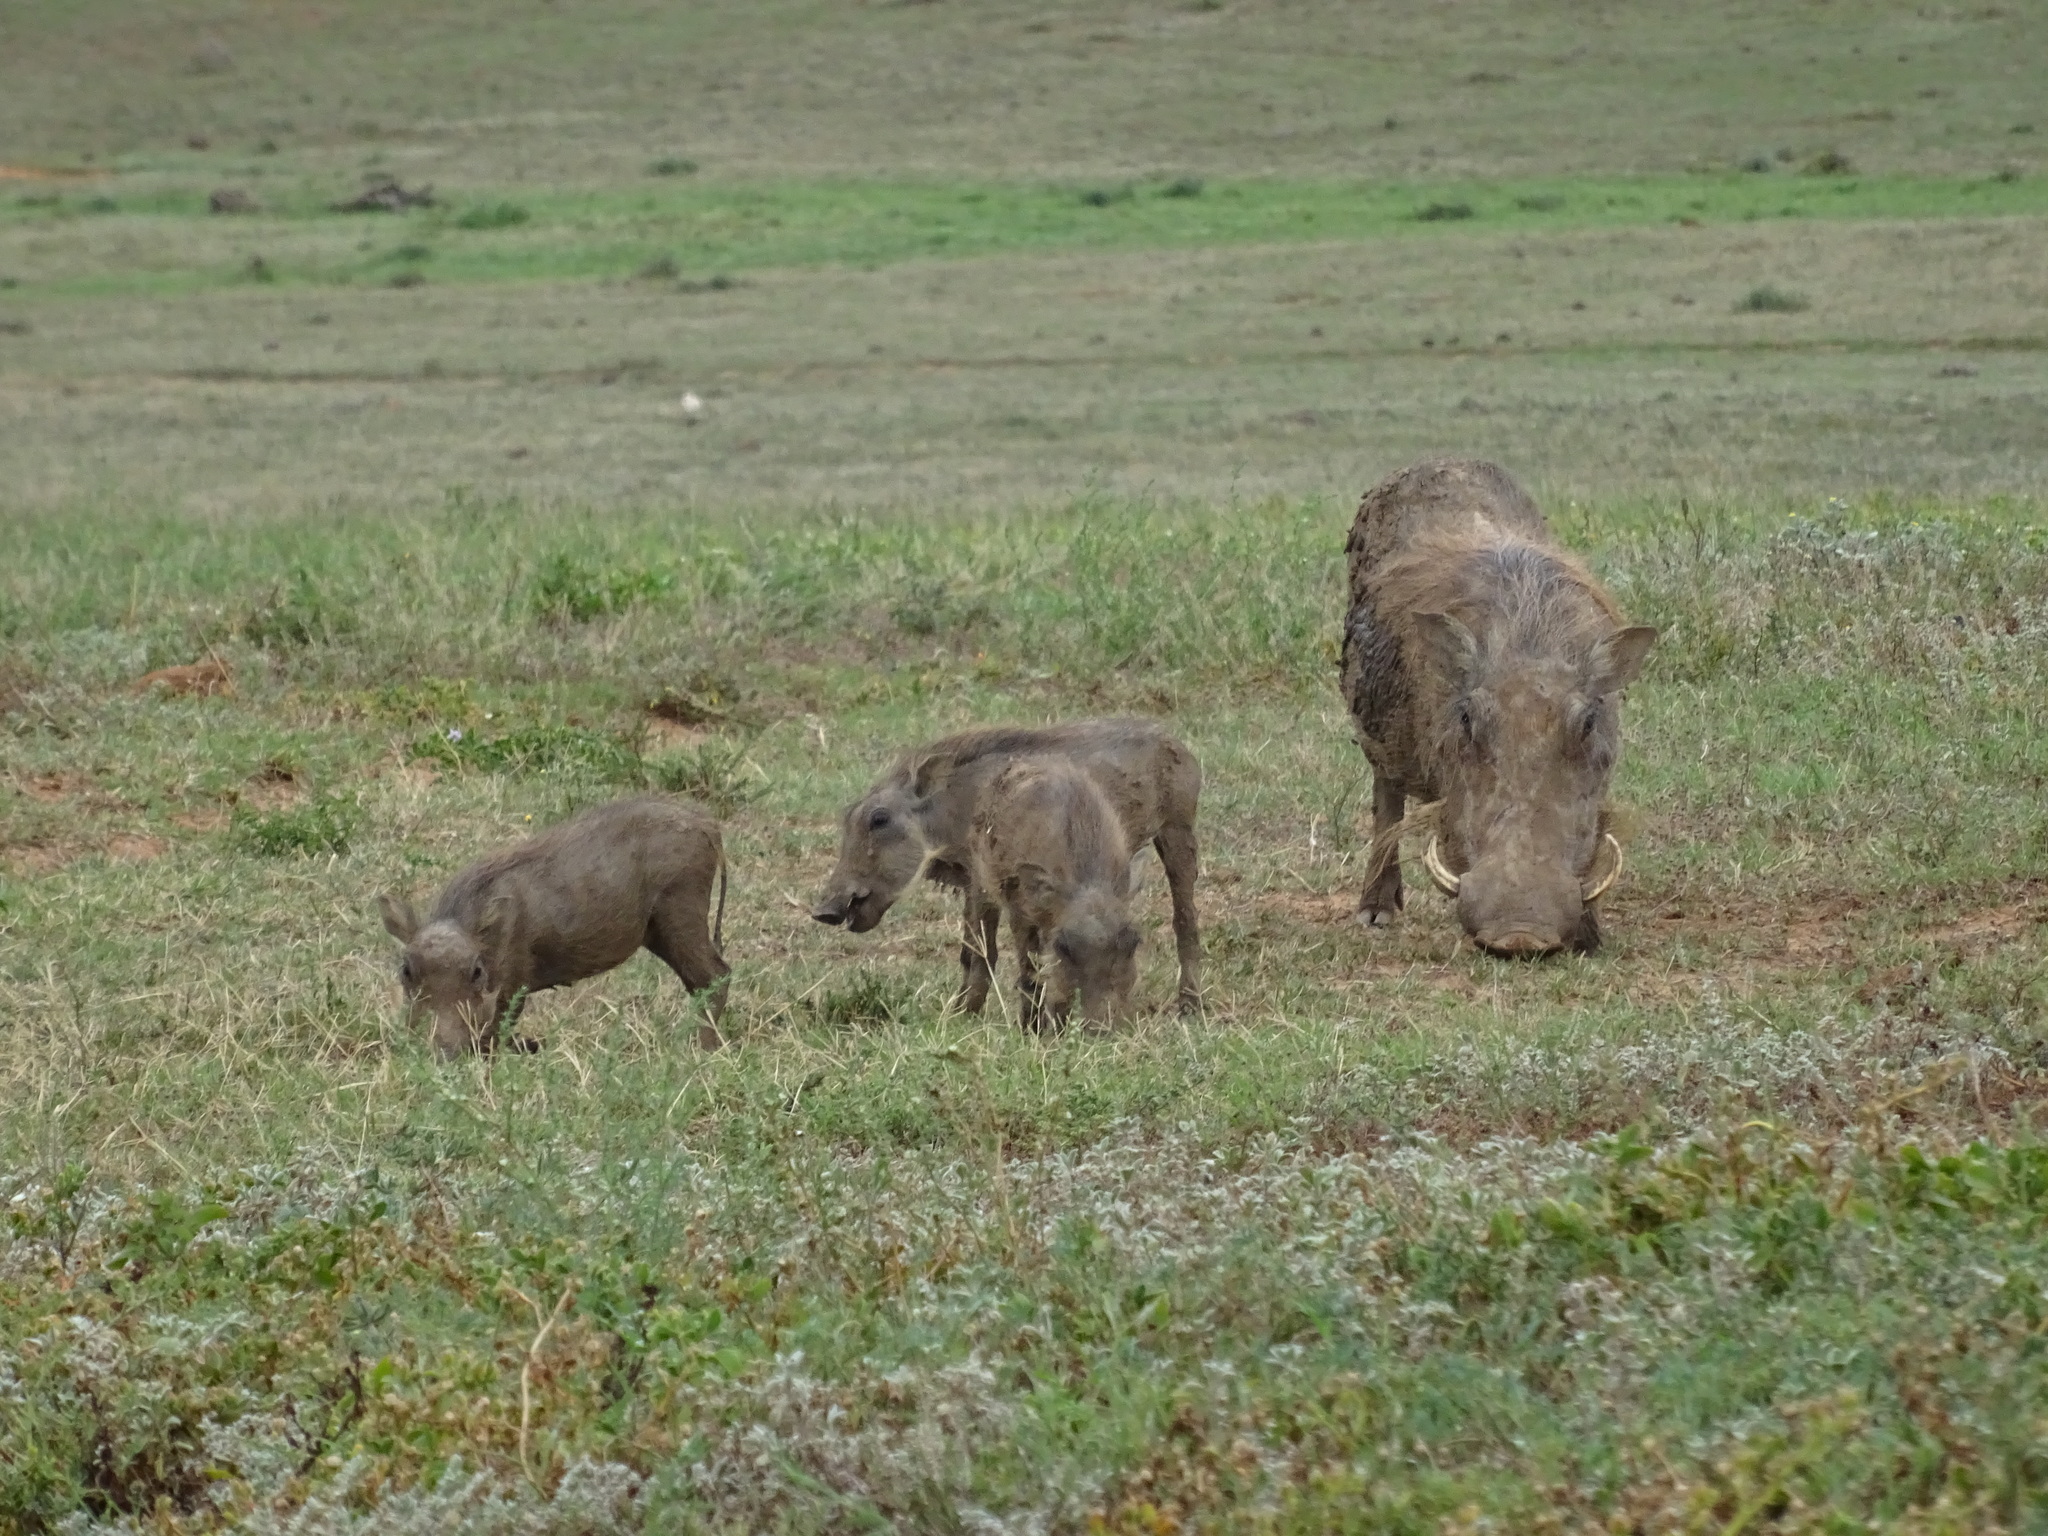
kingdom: Animalia
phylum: Chordata
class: Mammalia
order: Artiodactyla
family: Suidae
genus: Phacochoerus
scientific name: Phacochoerus africanus
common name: Common warthog
